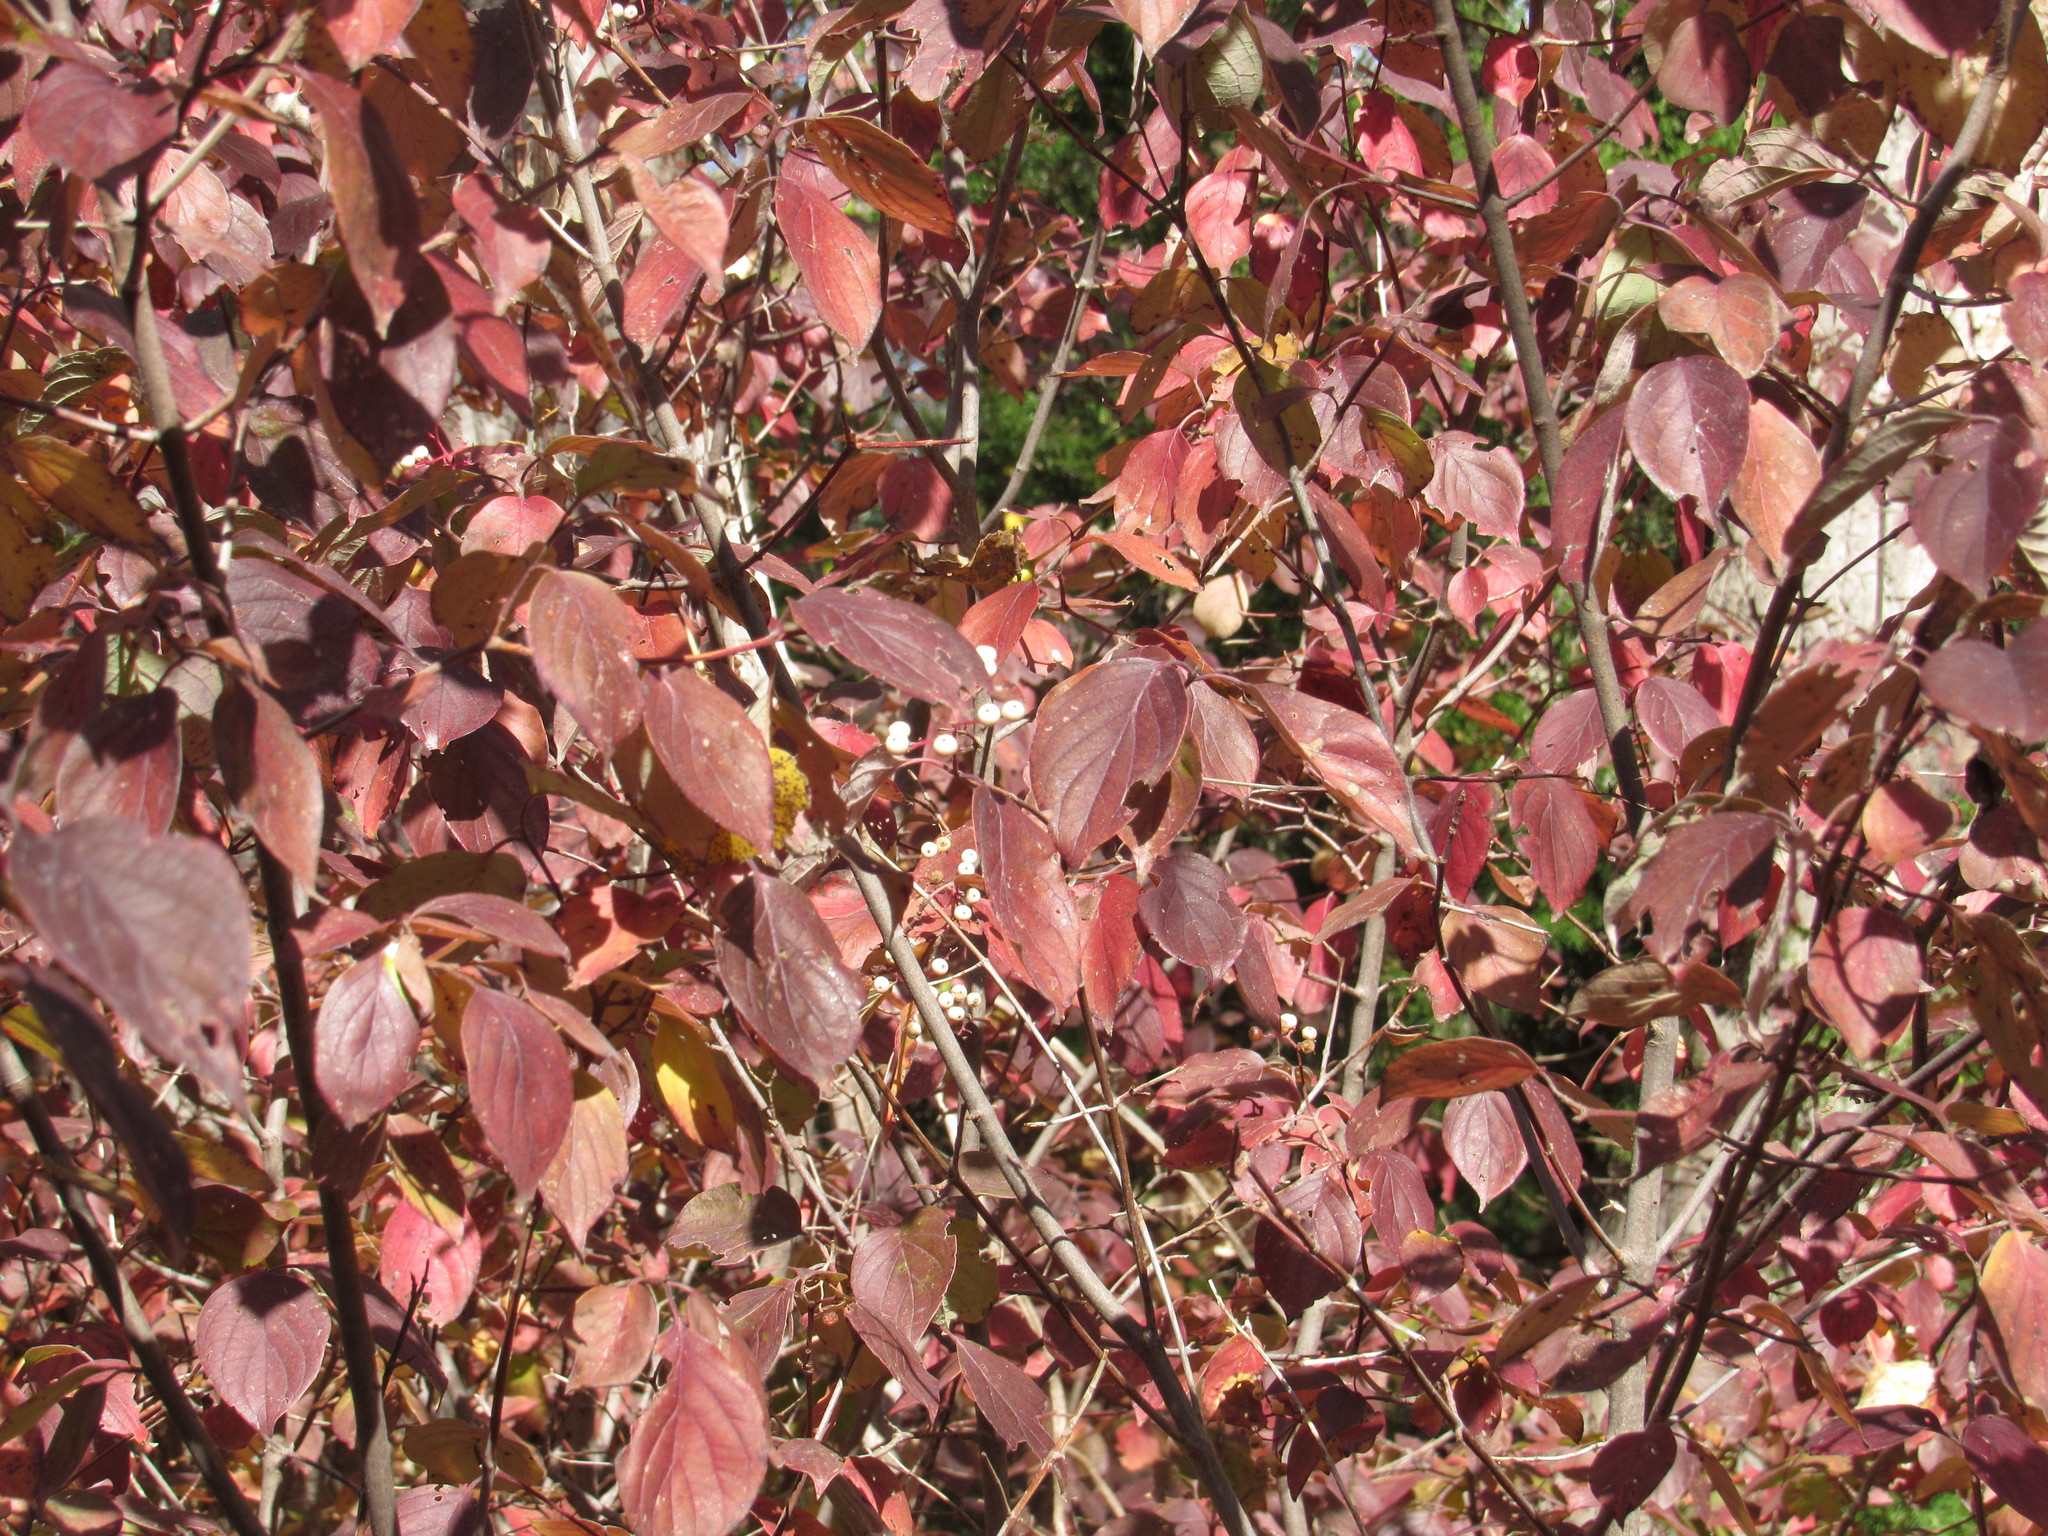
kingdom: Plantae
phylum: Tracheophyta
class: Magnoliopsida
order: Cornales
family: Cornaceae
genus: Cornus
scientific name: Cornus drummondii
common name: Rough-leaf dogwood
